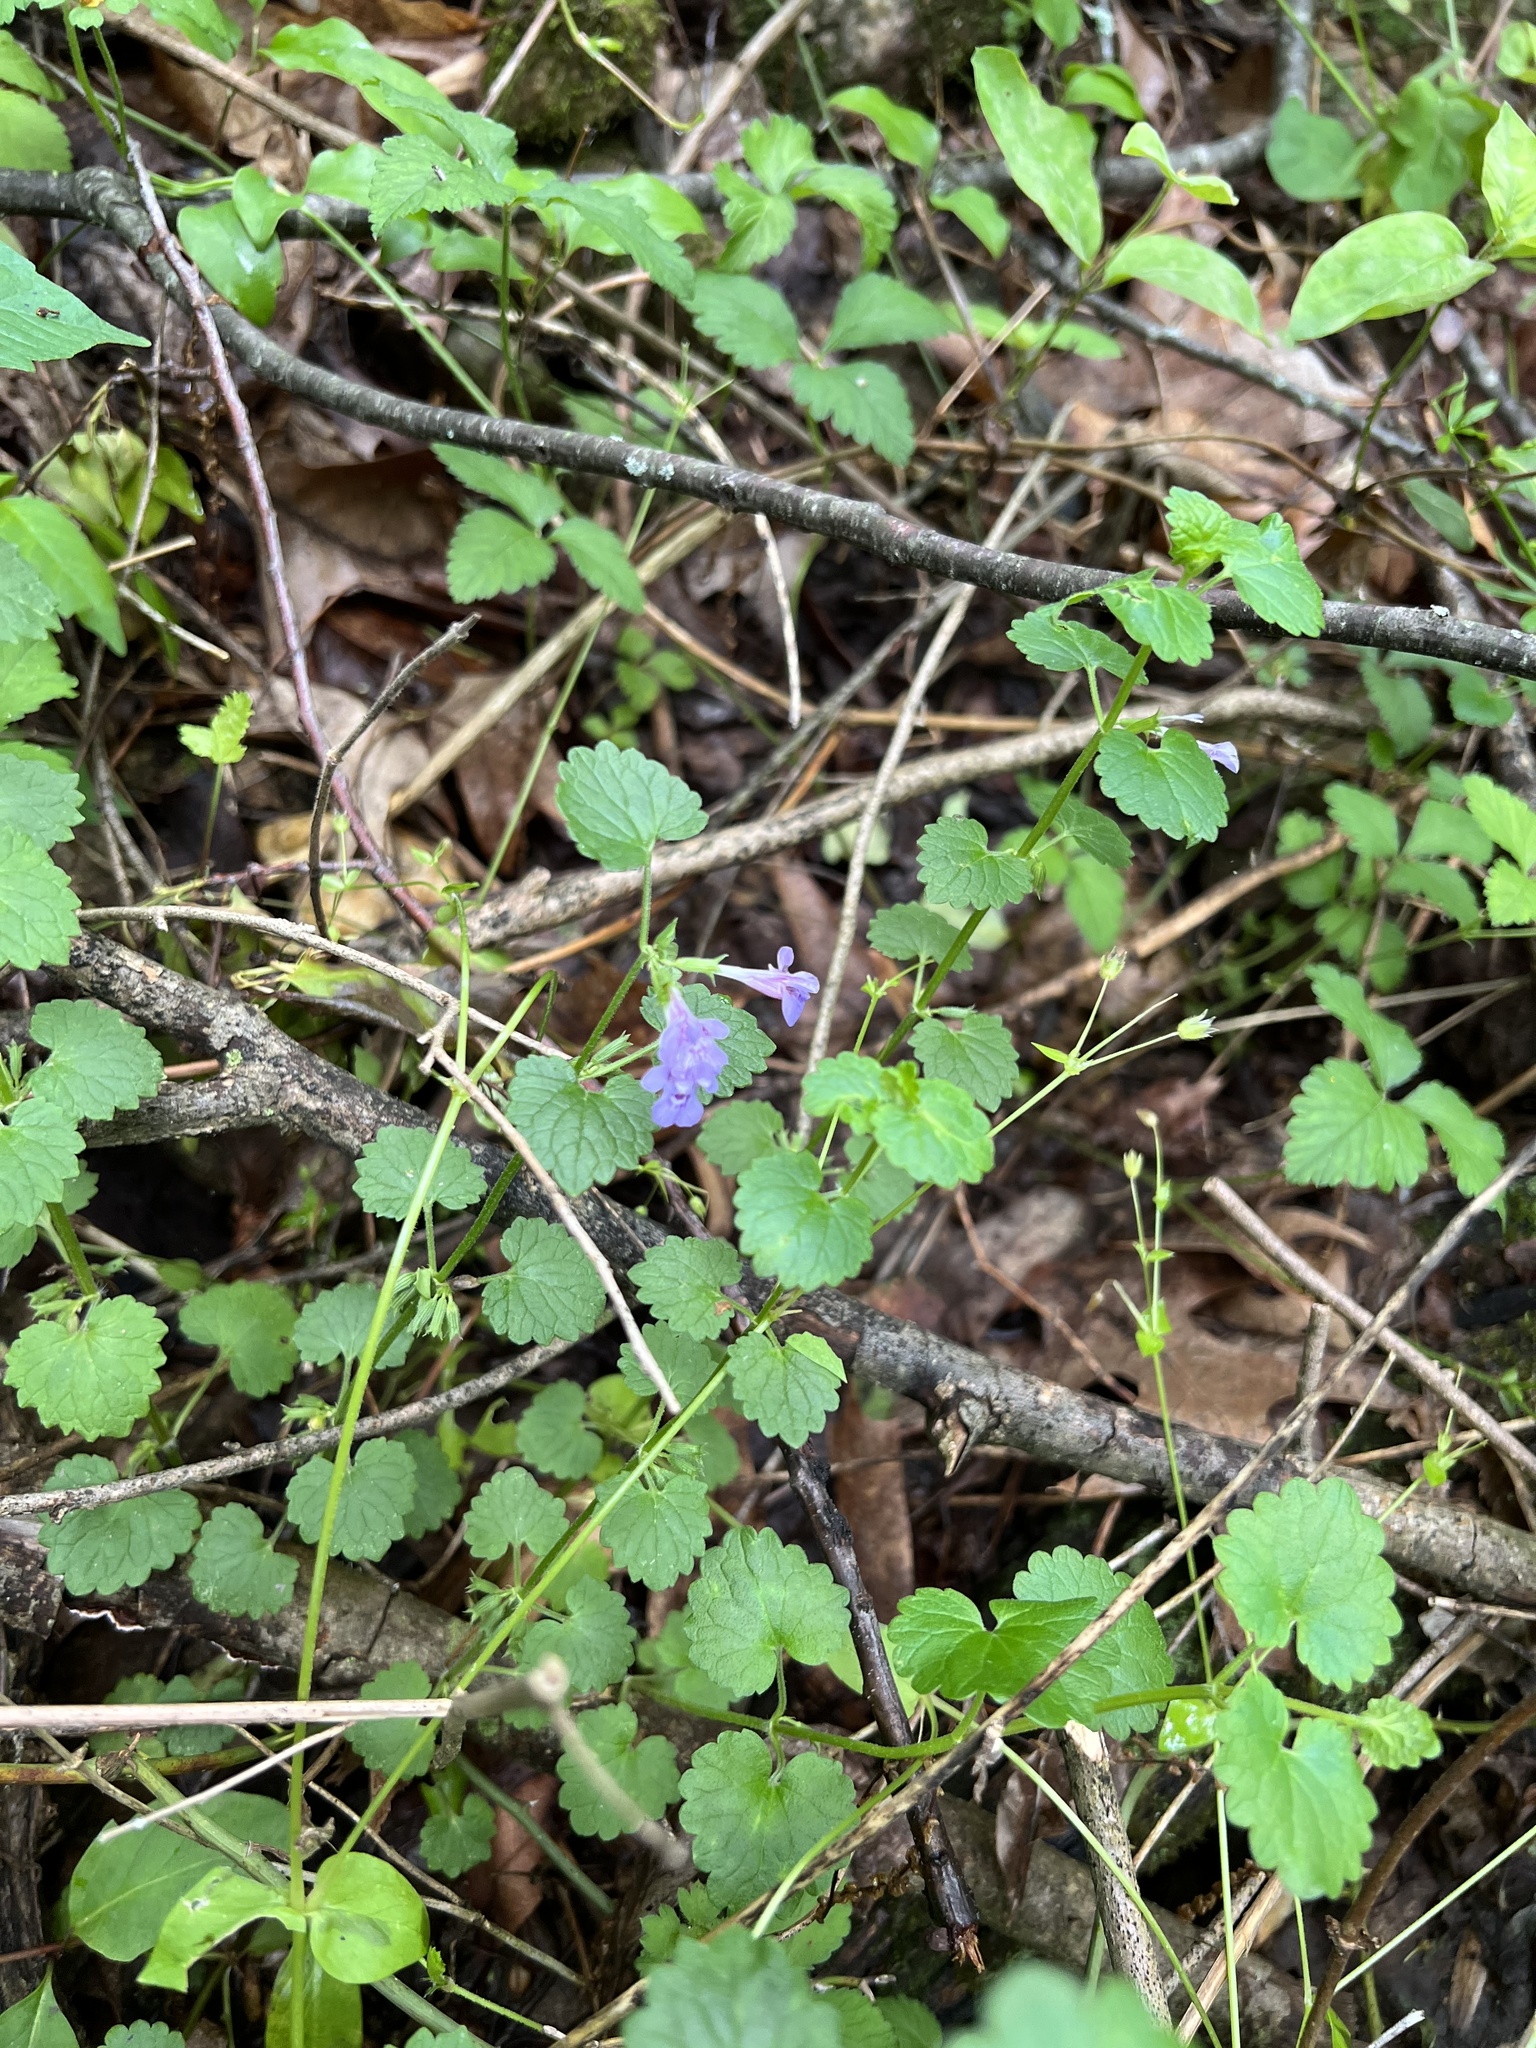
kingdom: Plantae
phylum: Tracheophyta
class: Magnoliopsida
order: Lamiales
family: Lamiaceae
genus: Glechoma
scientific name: Glechoma hederacea
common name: Ground ivy
